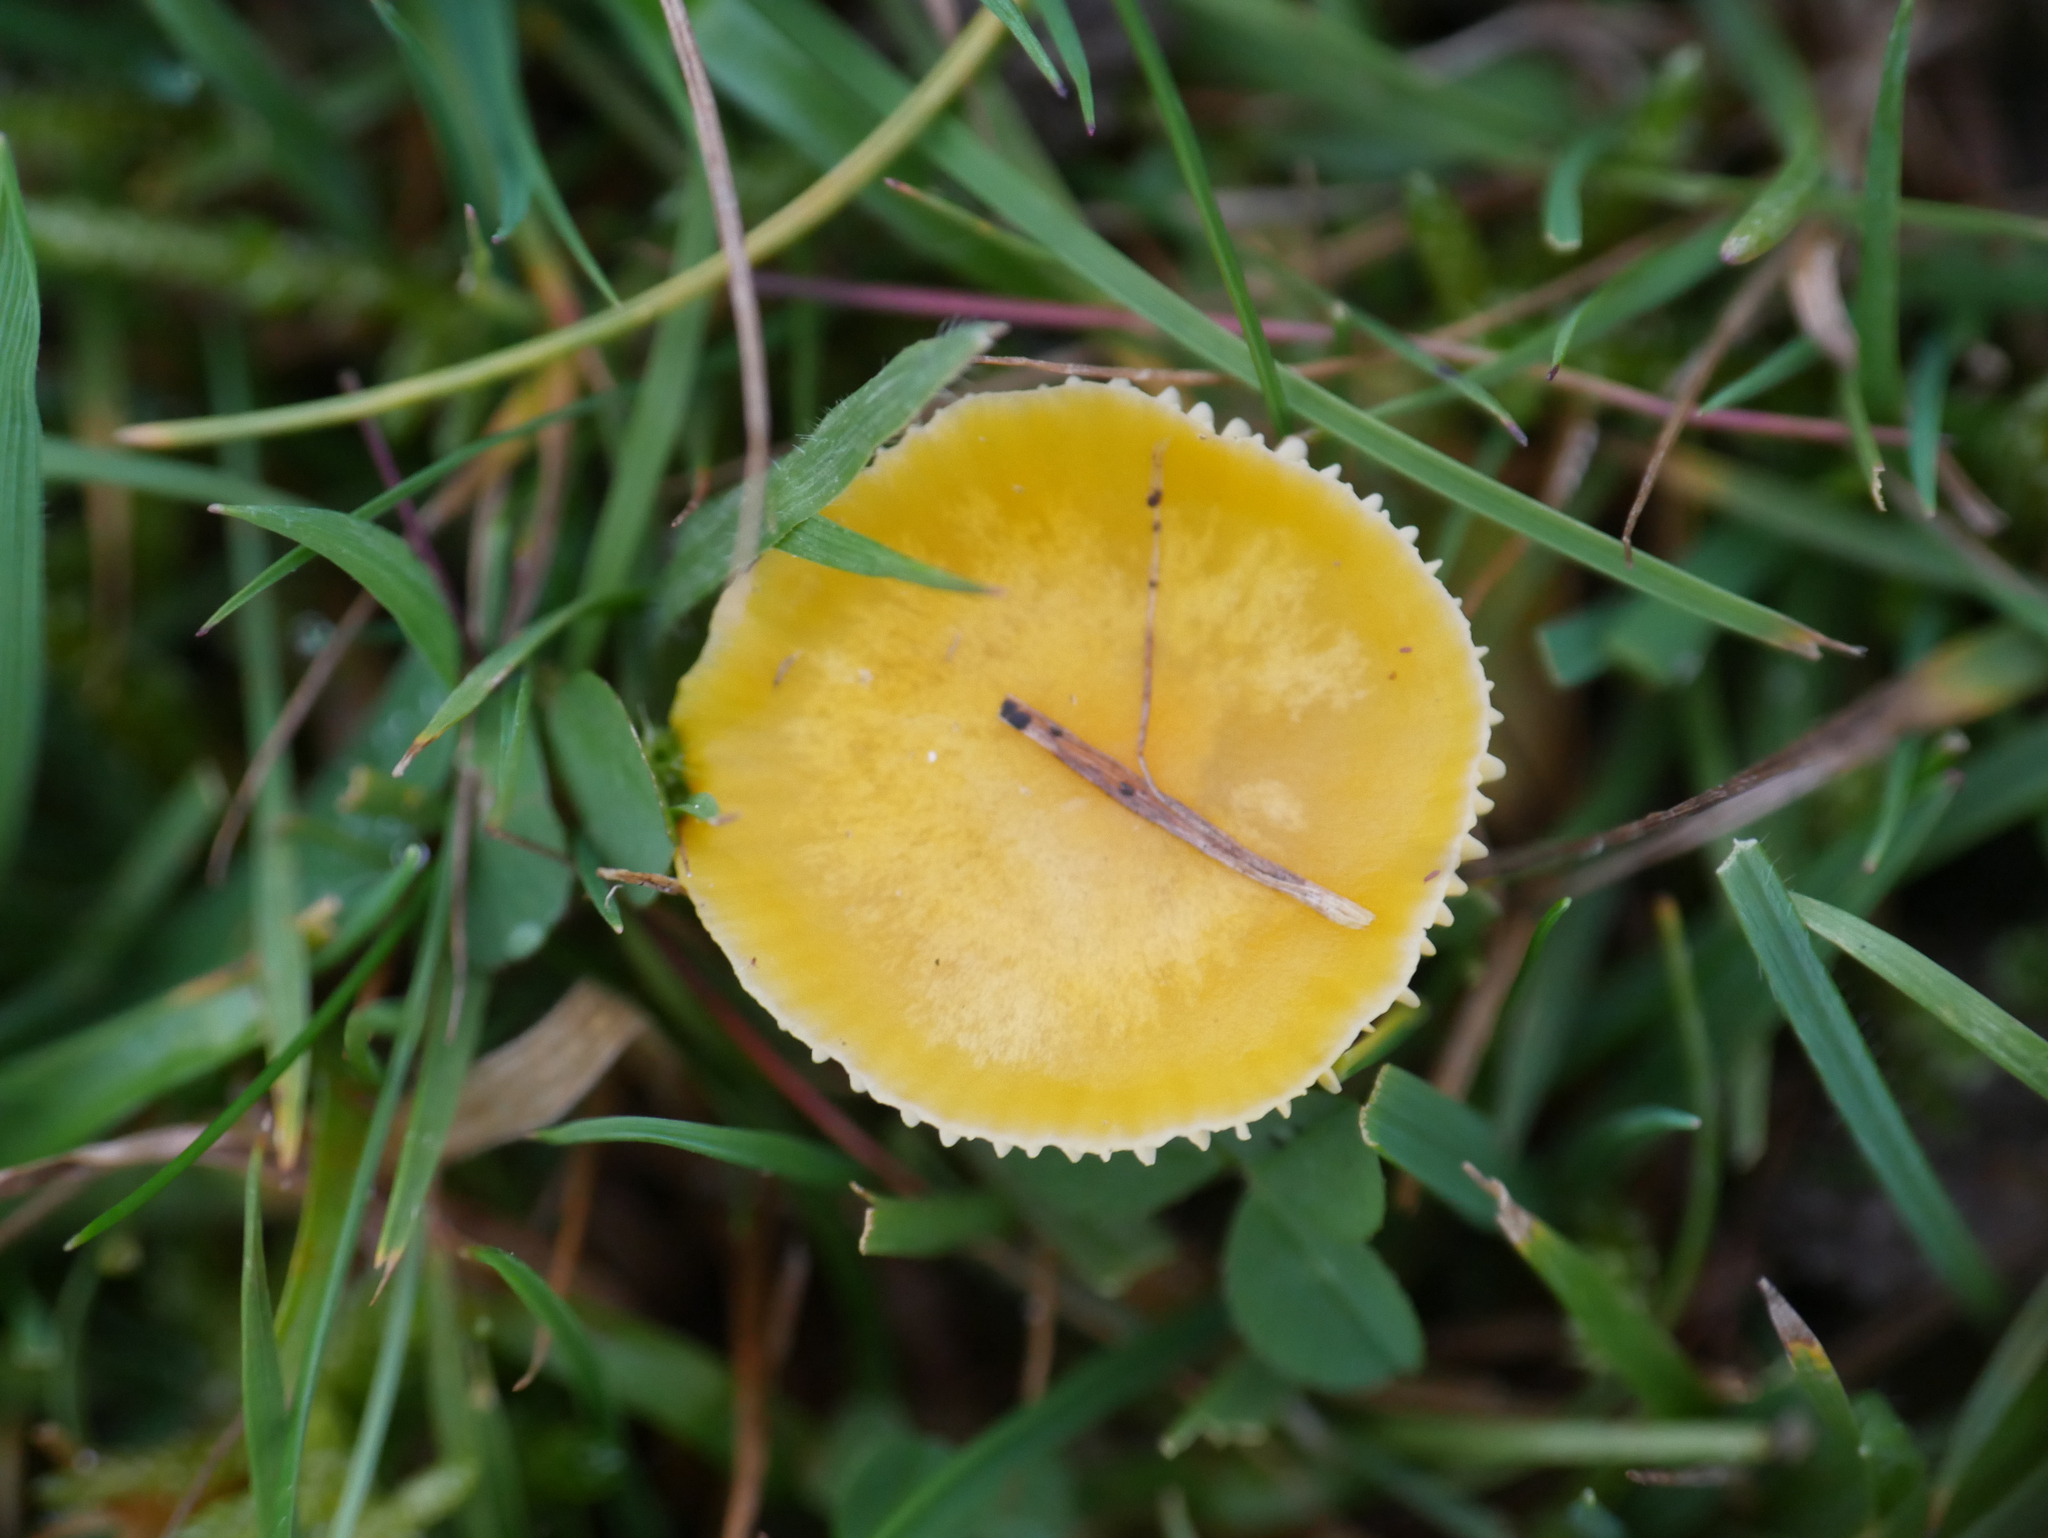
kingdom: Fungi
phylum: Basidiomycota
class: Agaricomycetes
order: Agaricales
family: Hygrophoraceae
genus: Hygrocybe
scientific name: Hygrocybe ceracea
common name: Butter waxcap
